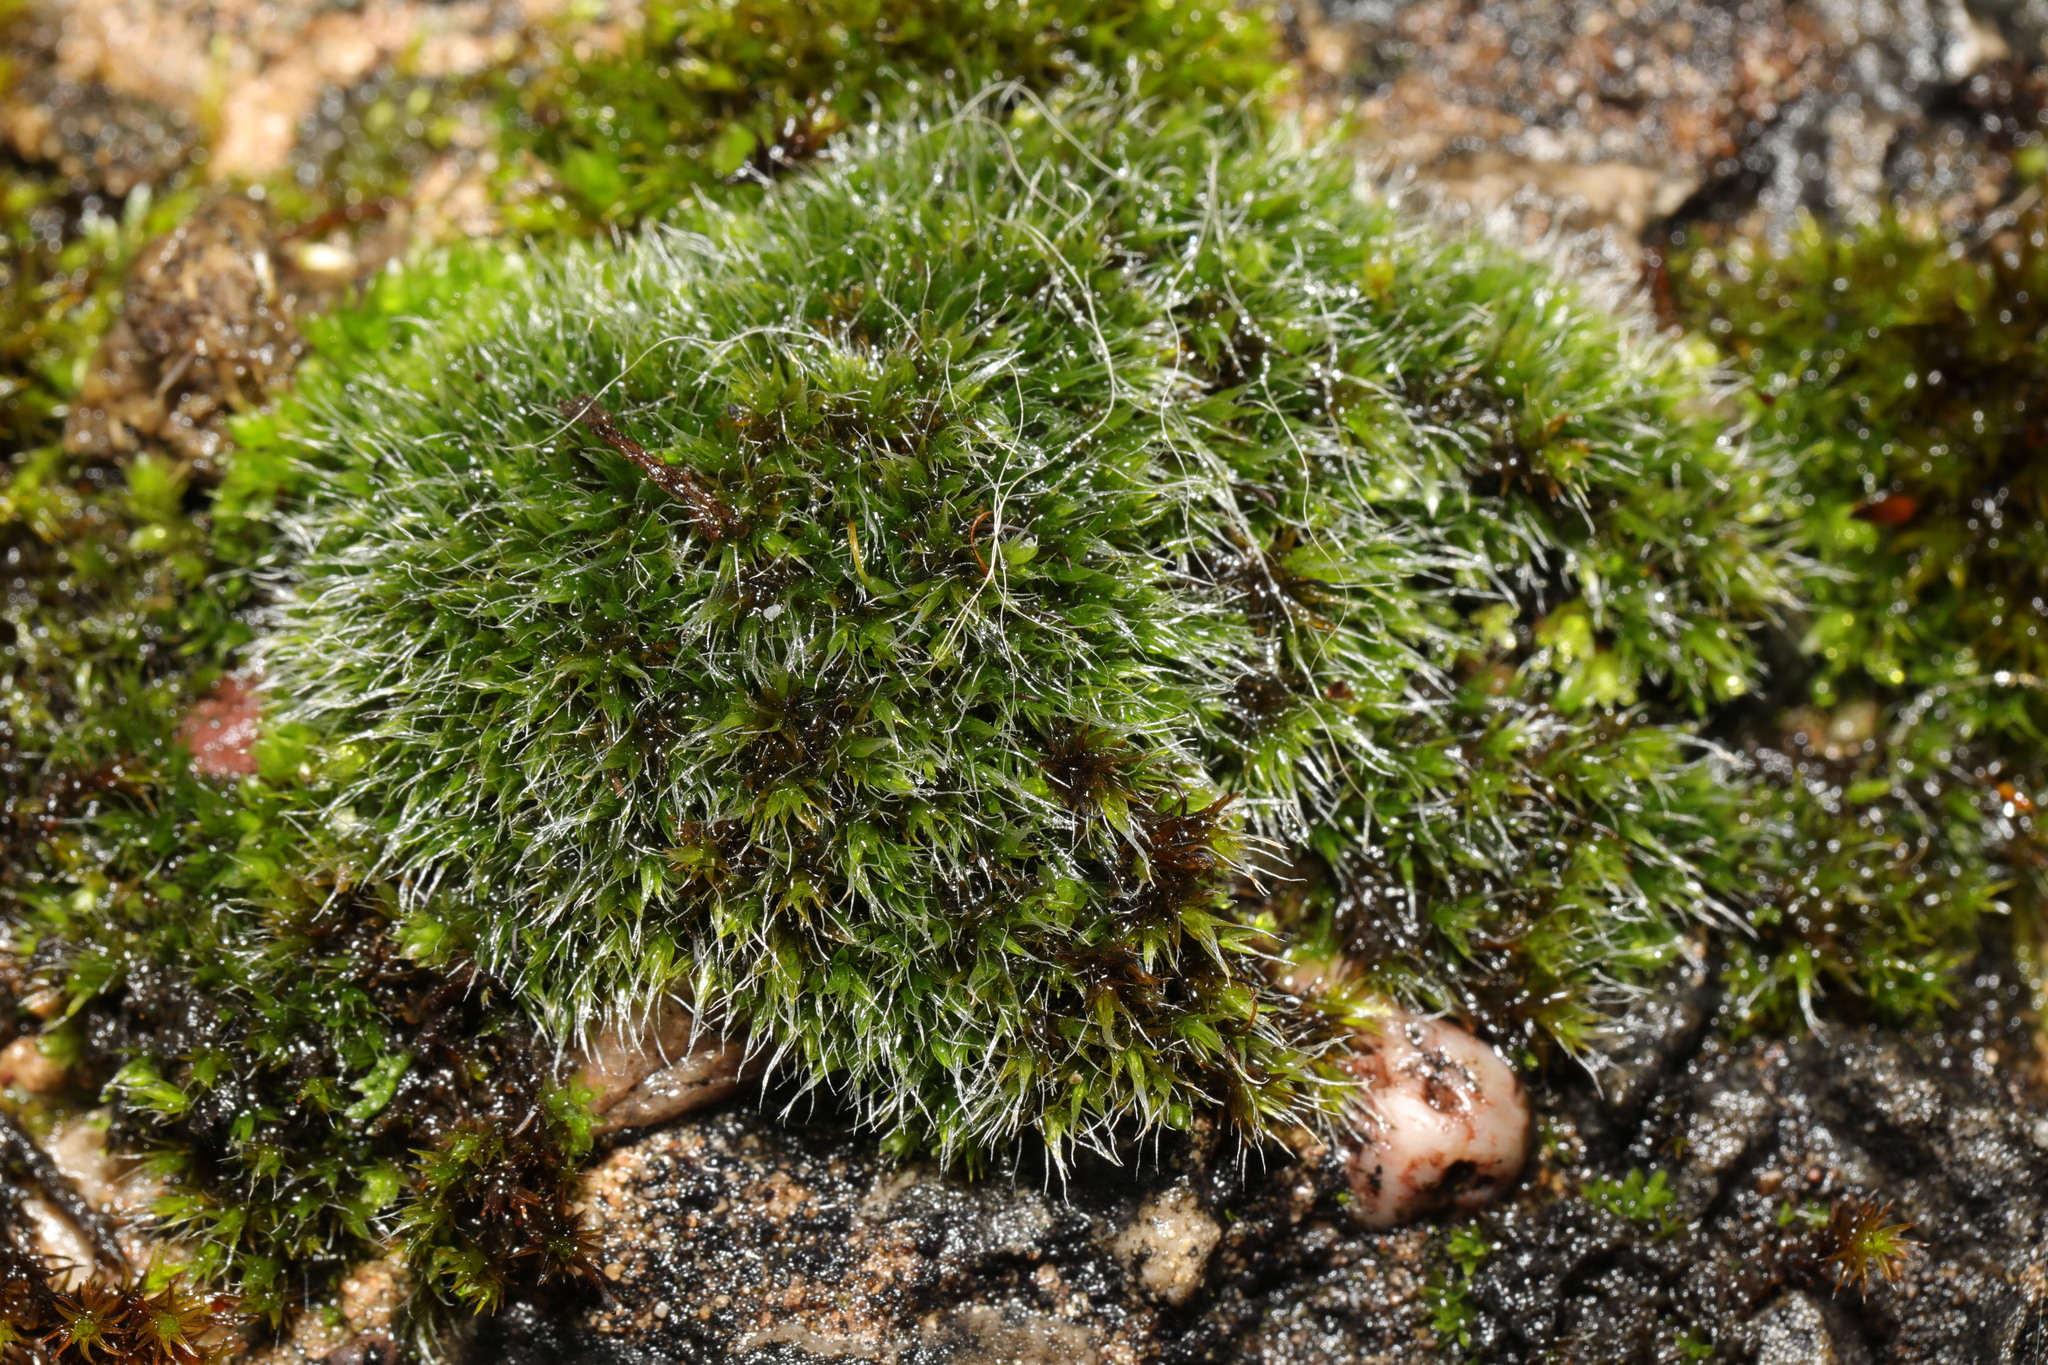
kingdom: Plantae
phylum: Bryophyta
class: Bryopsida
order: Grimmiales
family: Grimmiaceae
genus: Grimmia
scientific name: Grimmia pulvinata
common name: Grey-cushioned grimmia
